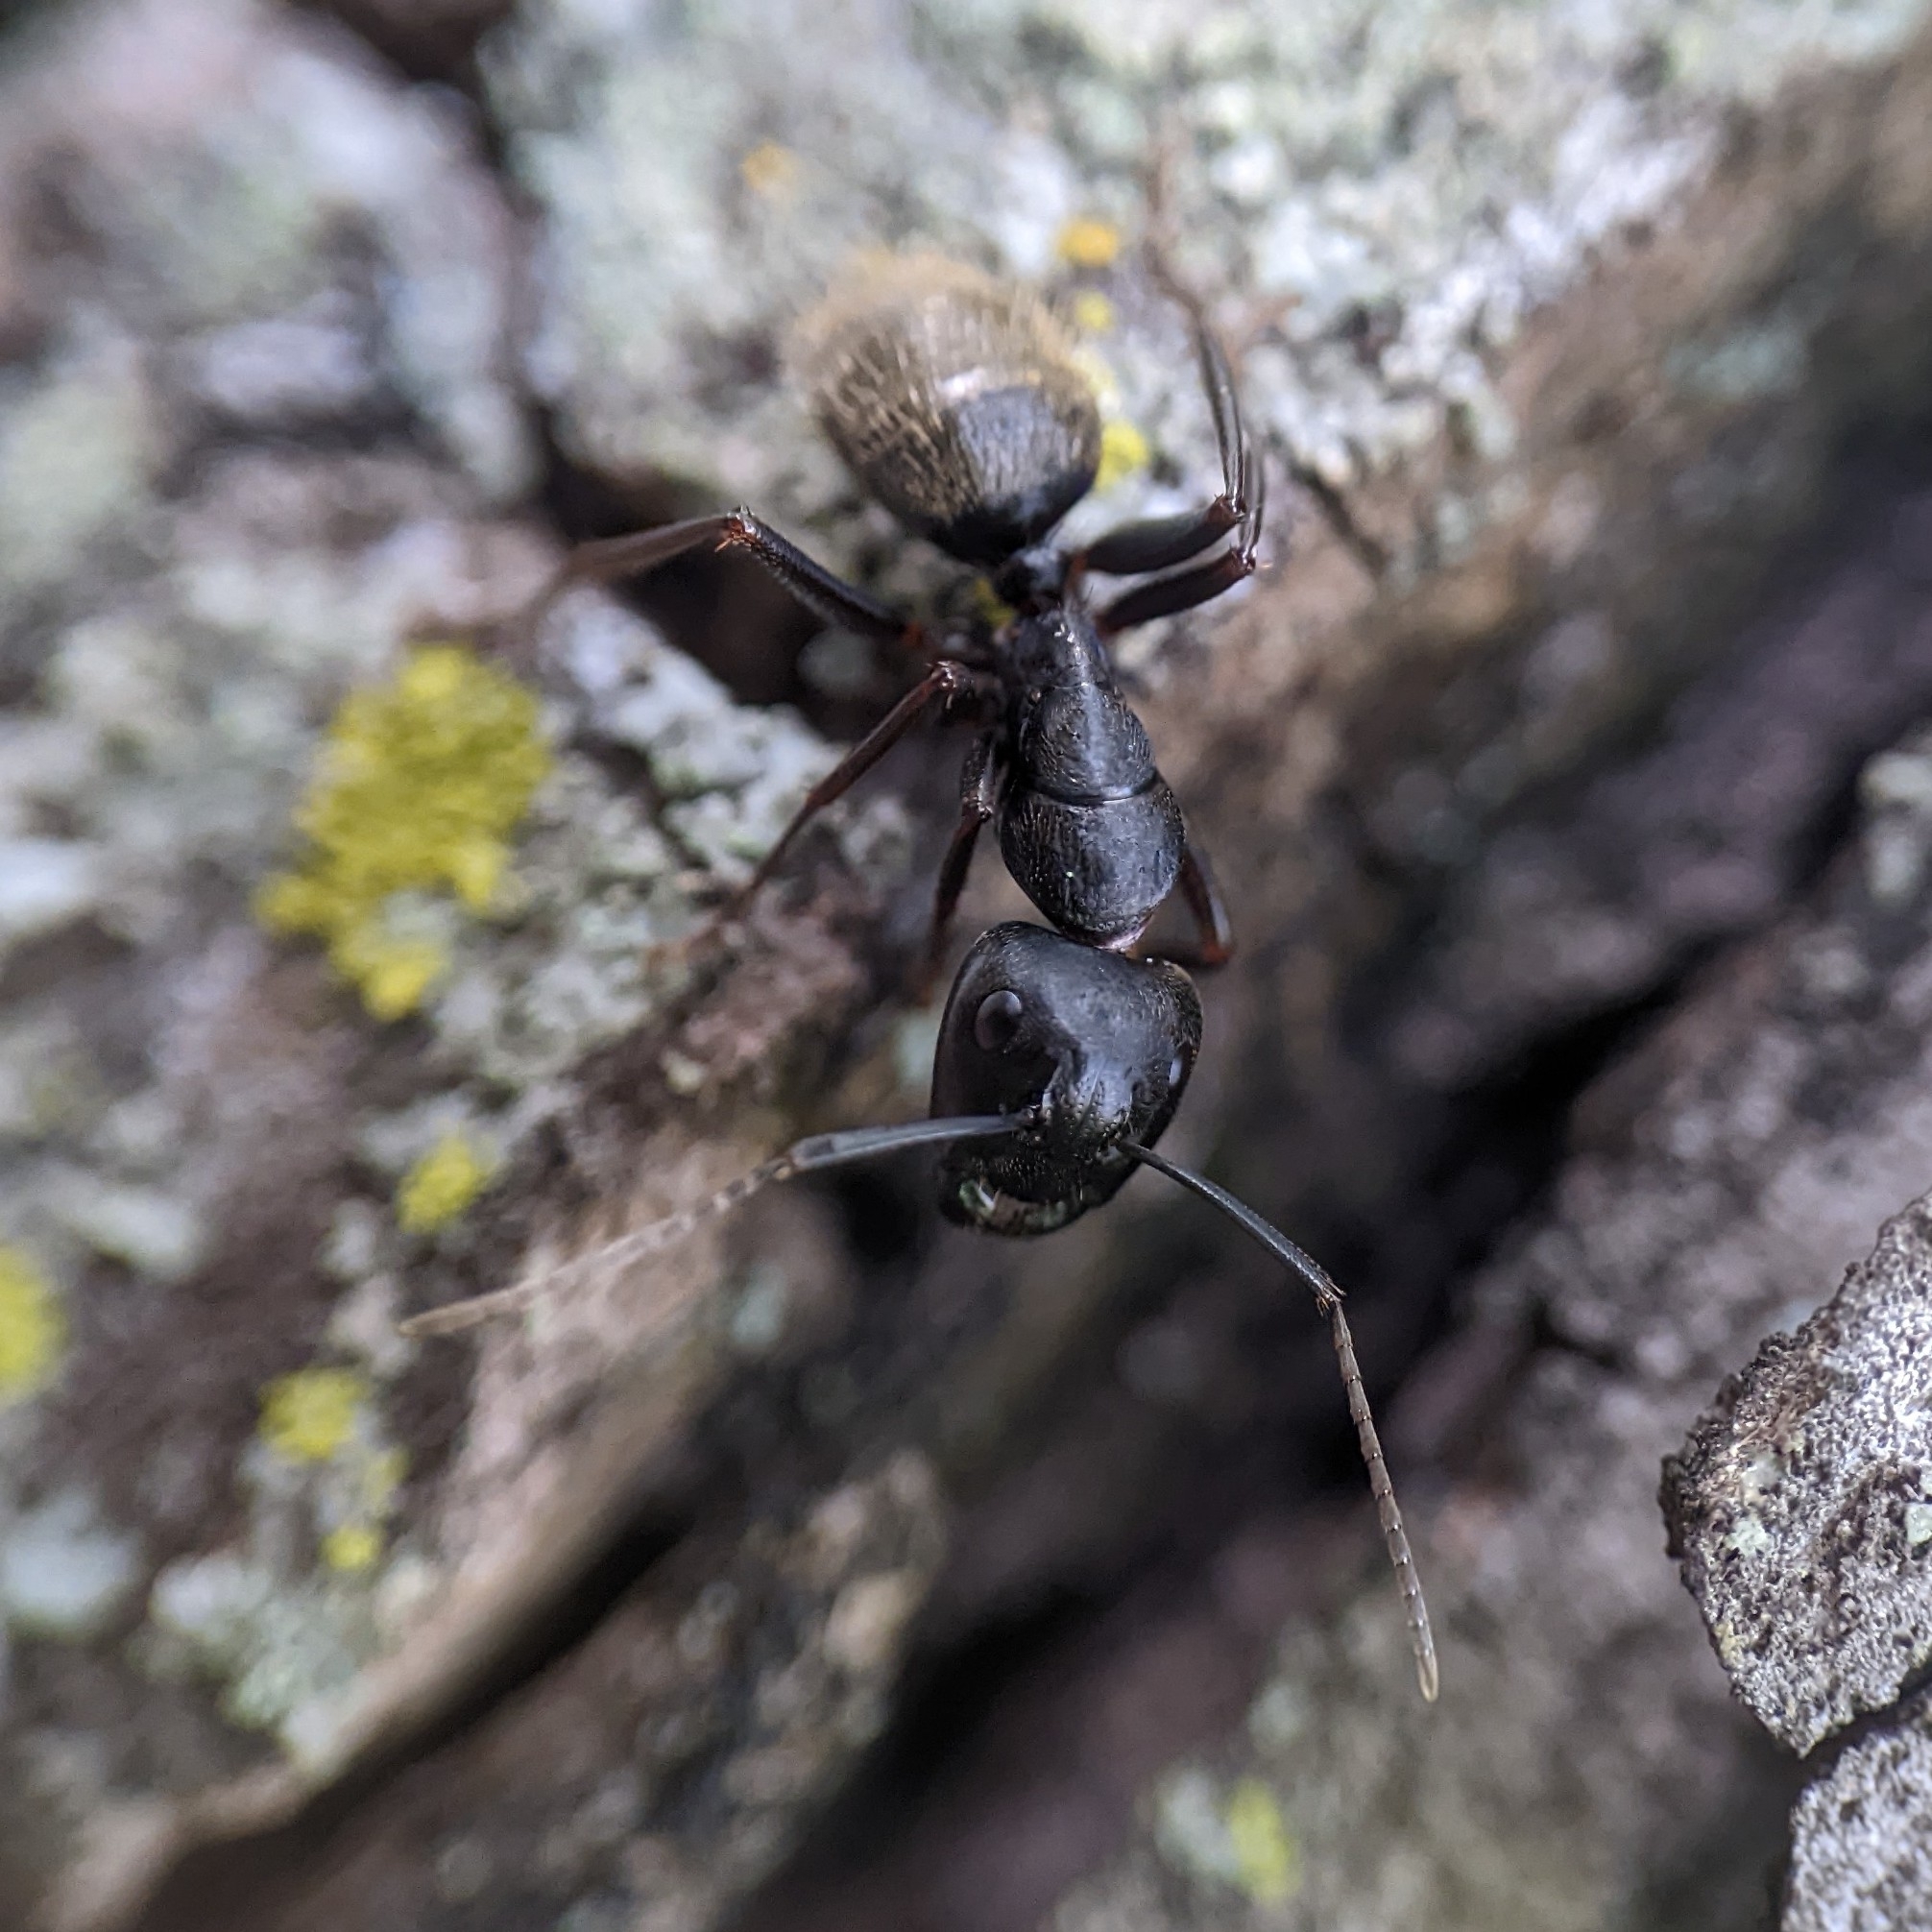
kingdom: Animalia
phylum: Arthropoda
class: Insecta
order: Hymenoptera
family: Formicidae
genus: Camponotus
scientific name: Camponotus pennsylvanicus
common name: Black carpenter ant
